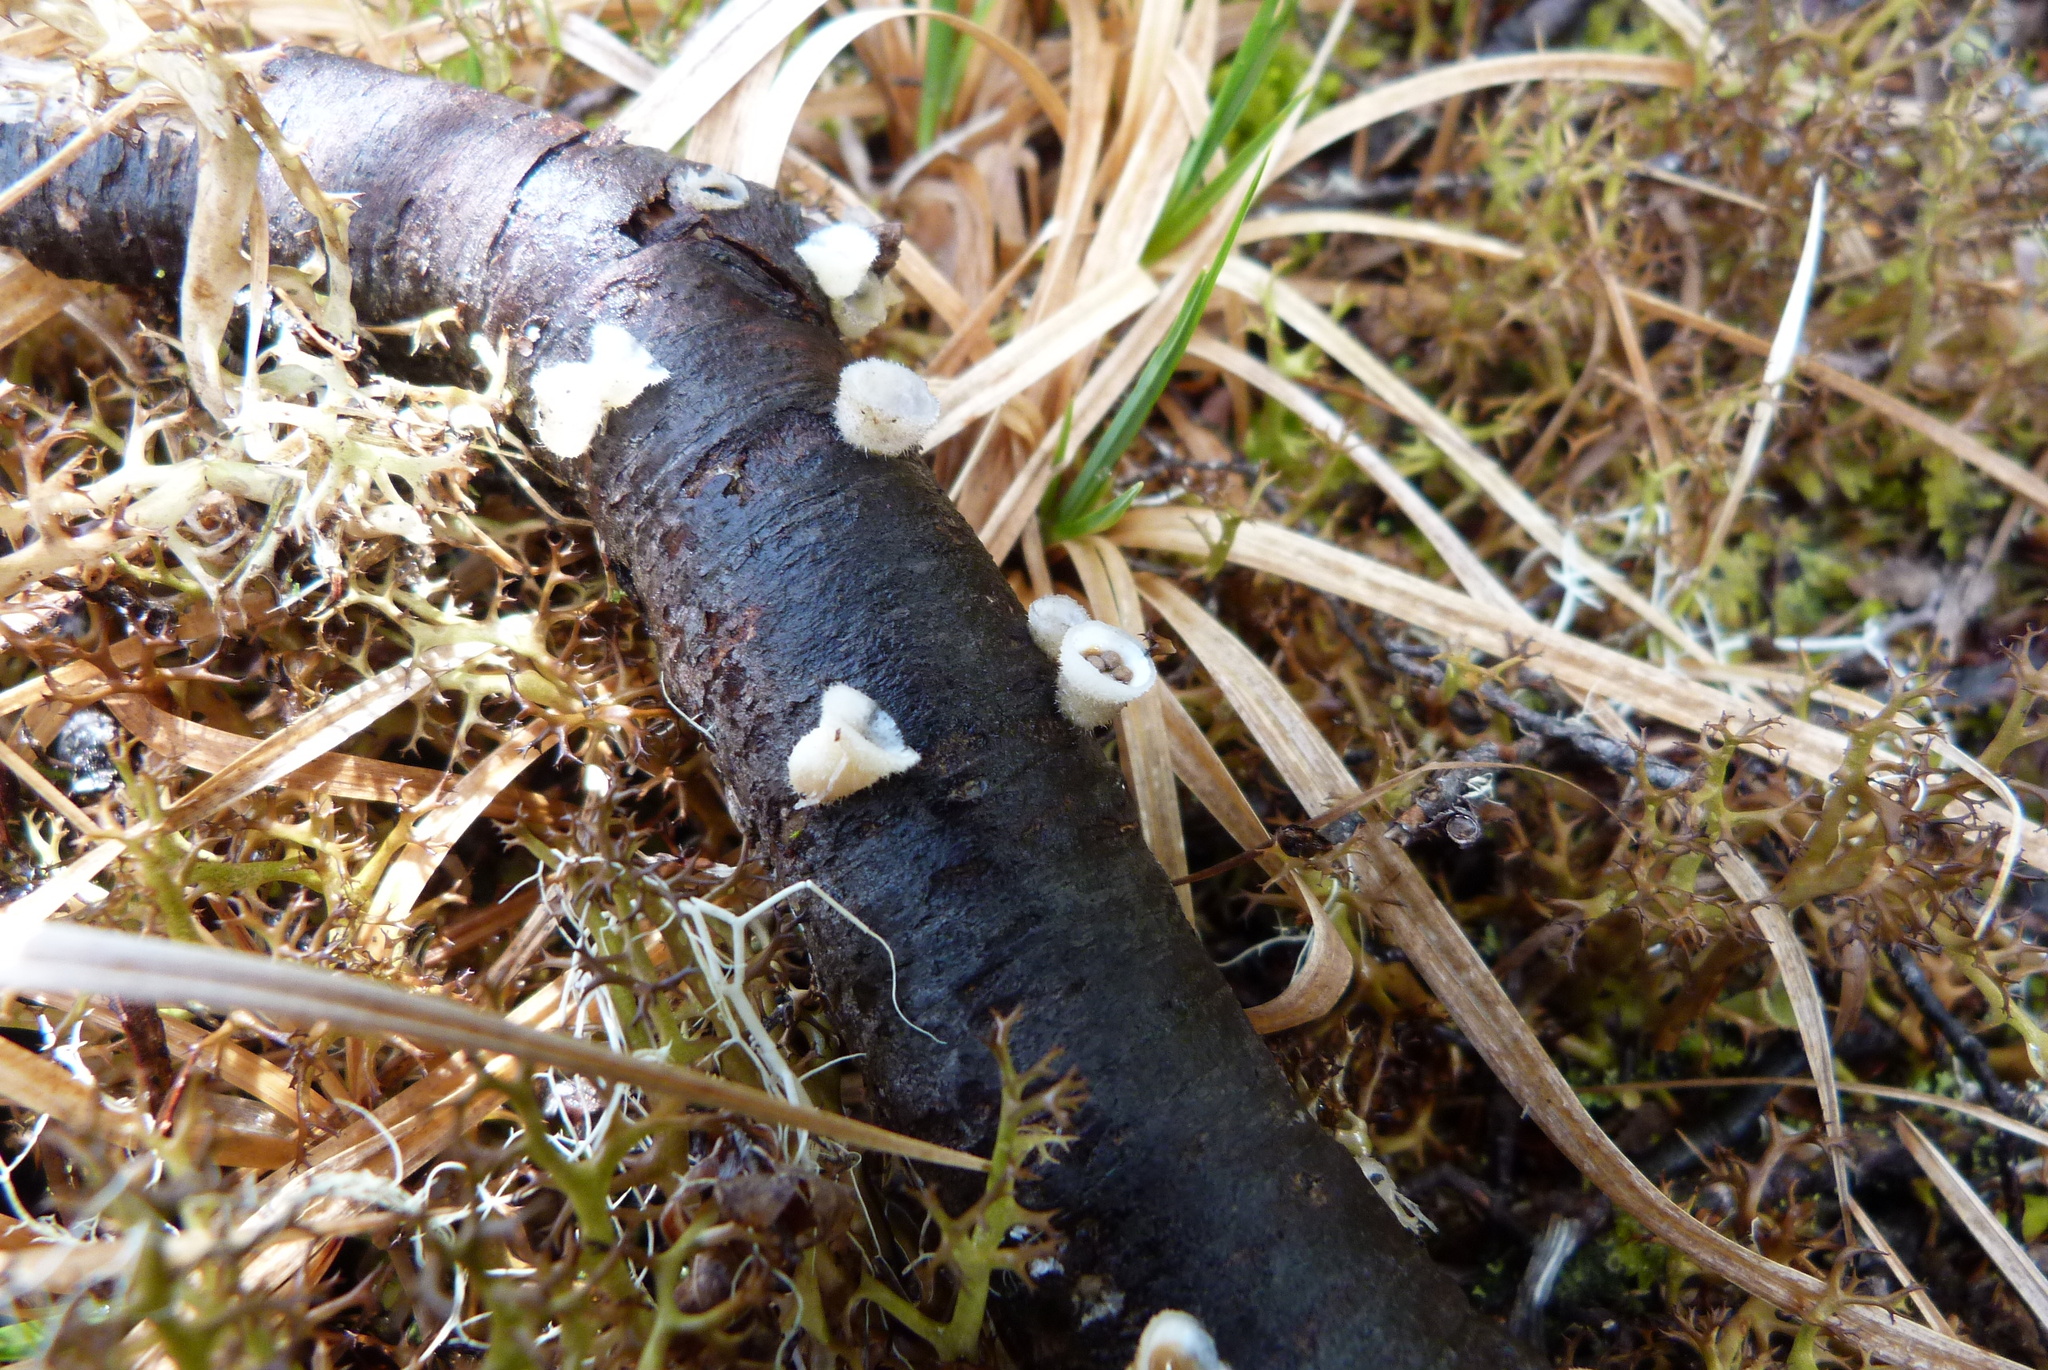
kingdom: Fungi
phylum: Basidiomycota
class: Agaricomycetes
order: Agaricales
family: Agaricaceae
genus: Nidula
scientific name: Nidula niveotomentosa
